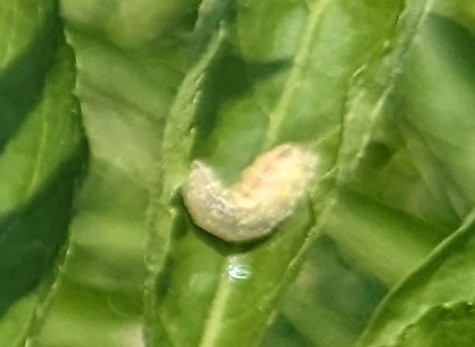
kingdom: Animalia
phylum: Arthropoda
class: Insecta
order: Diptera
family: Syrphidae
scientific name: Syrphidae
